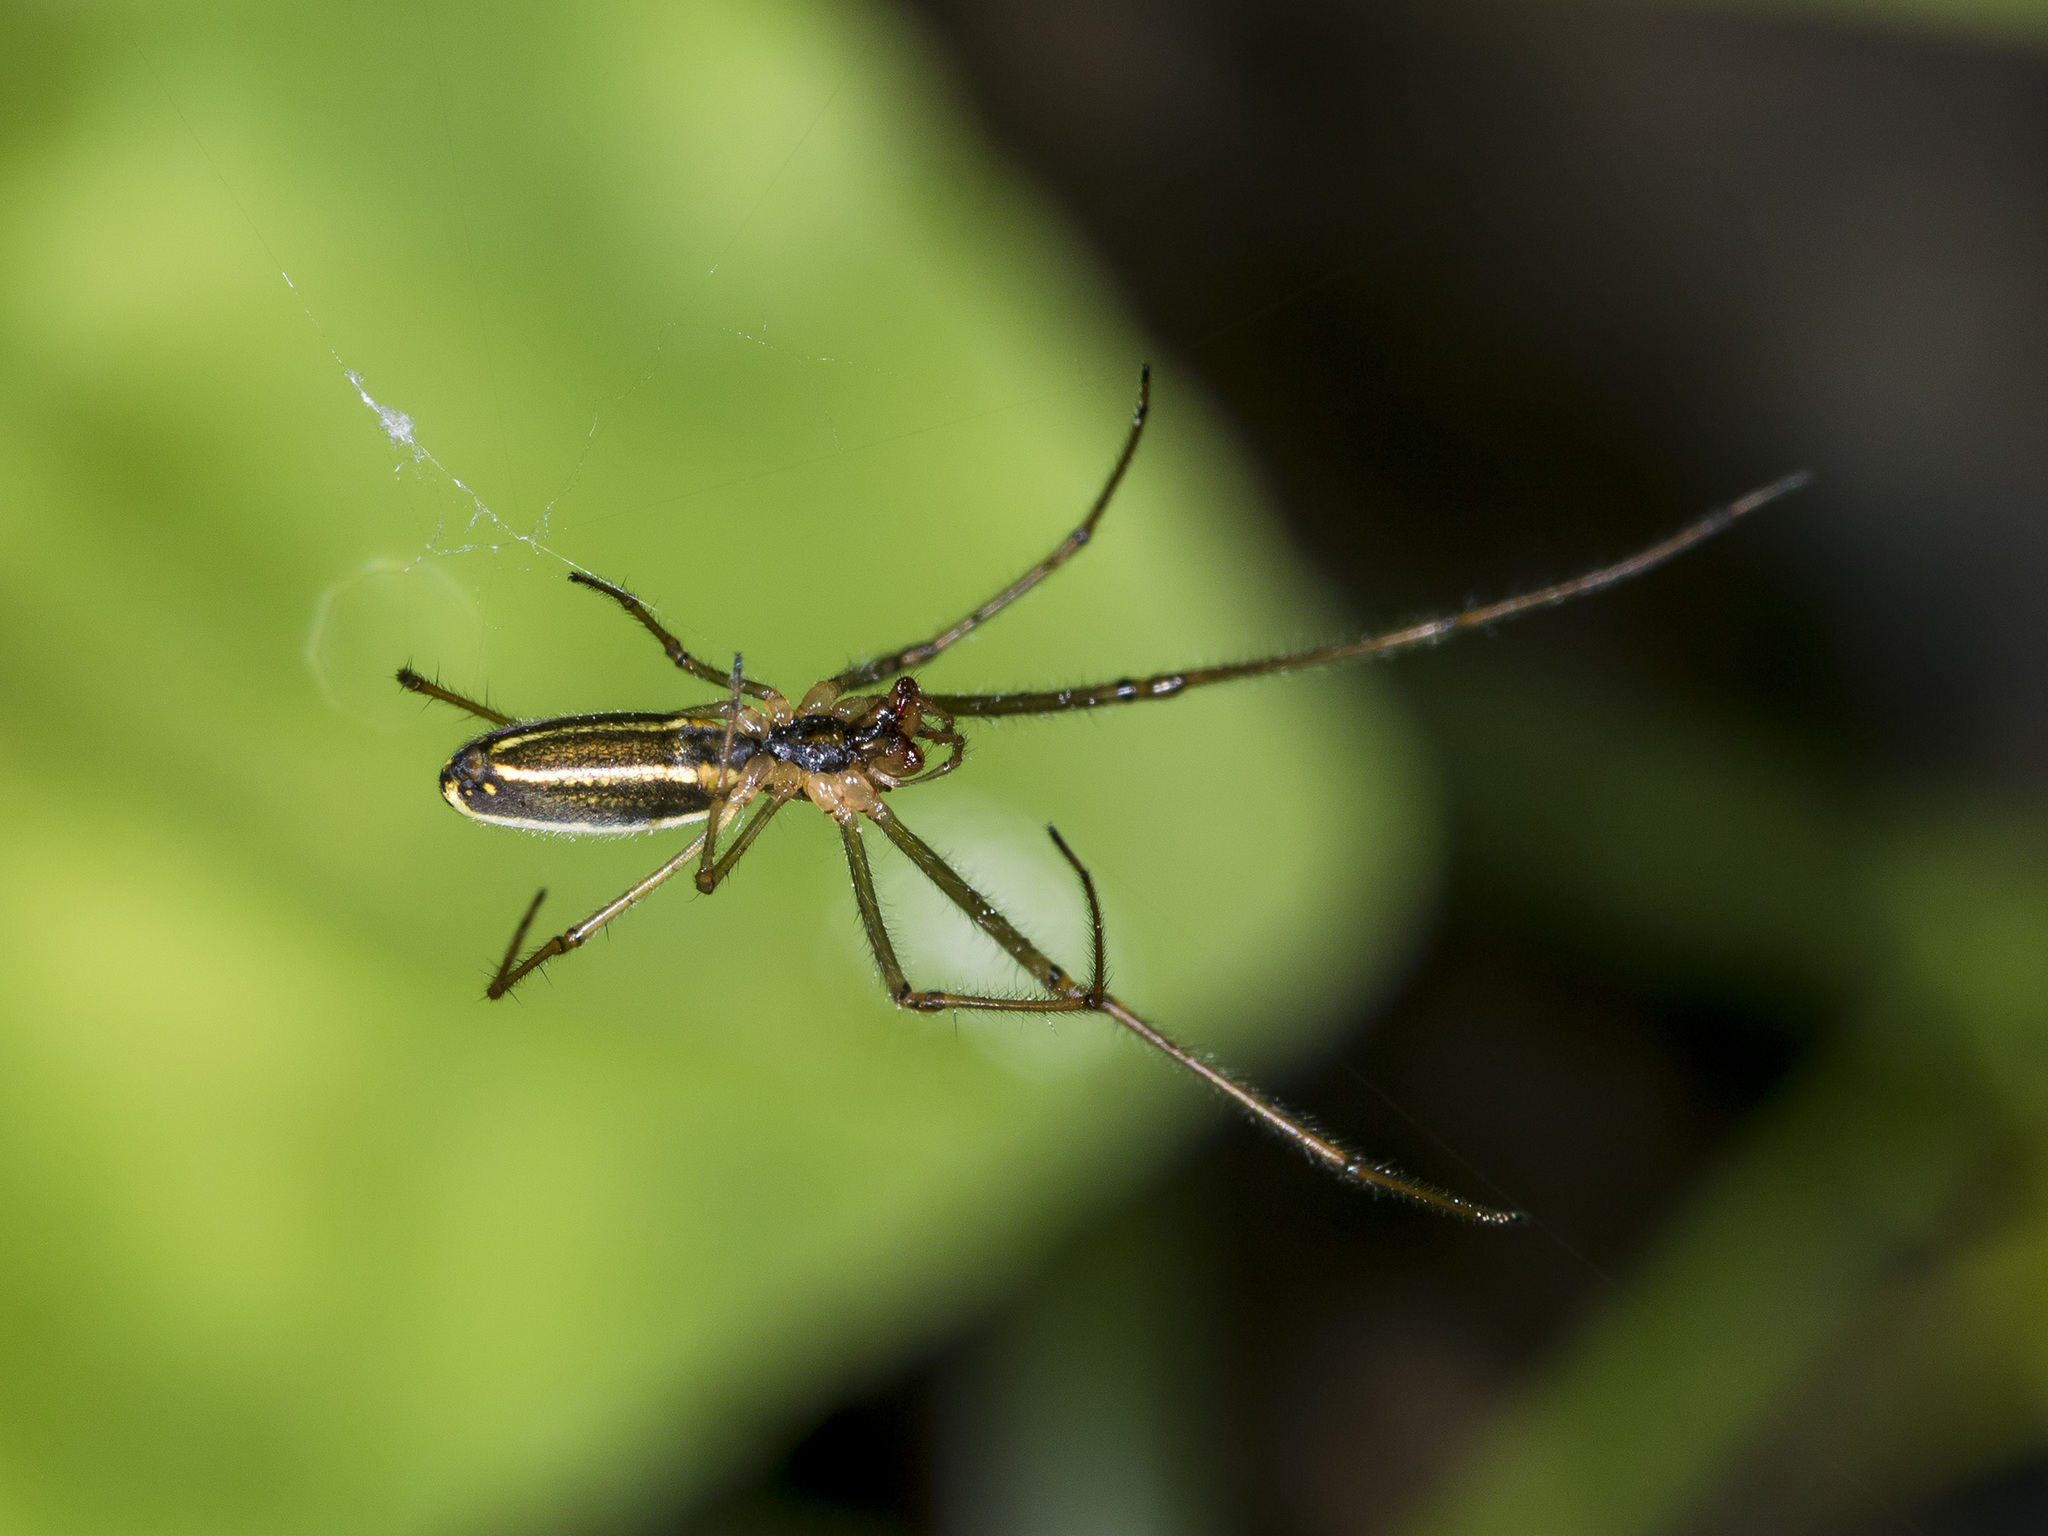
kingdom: Animalia
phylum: Arthropoda
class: Arachnida
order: Araneae
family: Tetragnathidae
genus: Tetragnatha
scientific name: Tetragnatha pinicola
